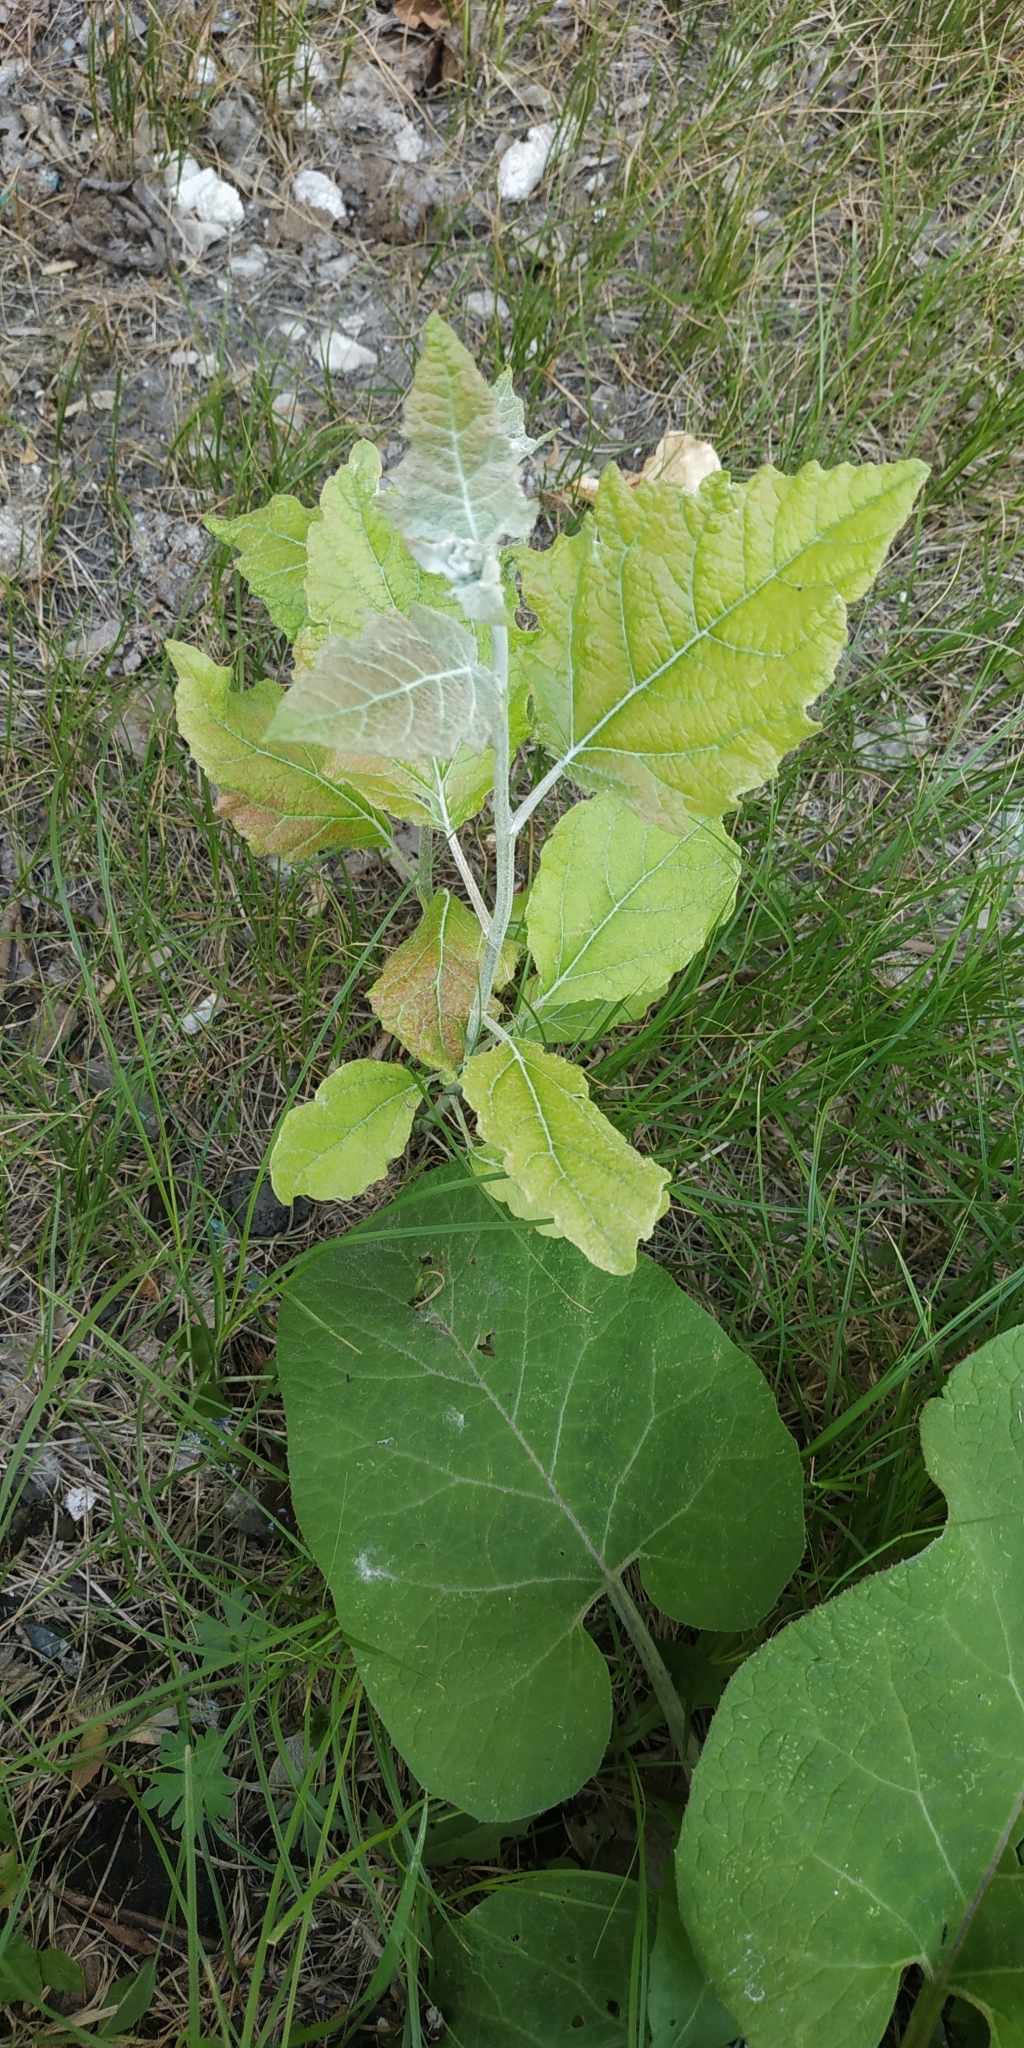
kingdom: Plantae
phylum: Tracheophyta
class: Magnoliopsida
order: Malpighiales
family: Salicaceae
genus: Populus
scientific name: Populus alba
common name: White poplar
